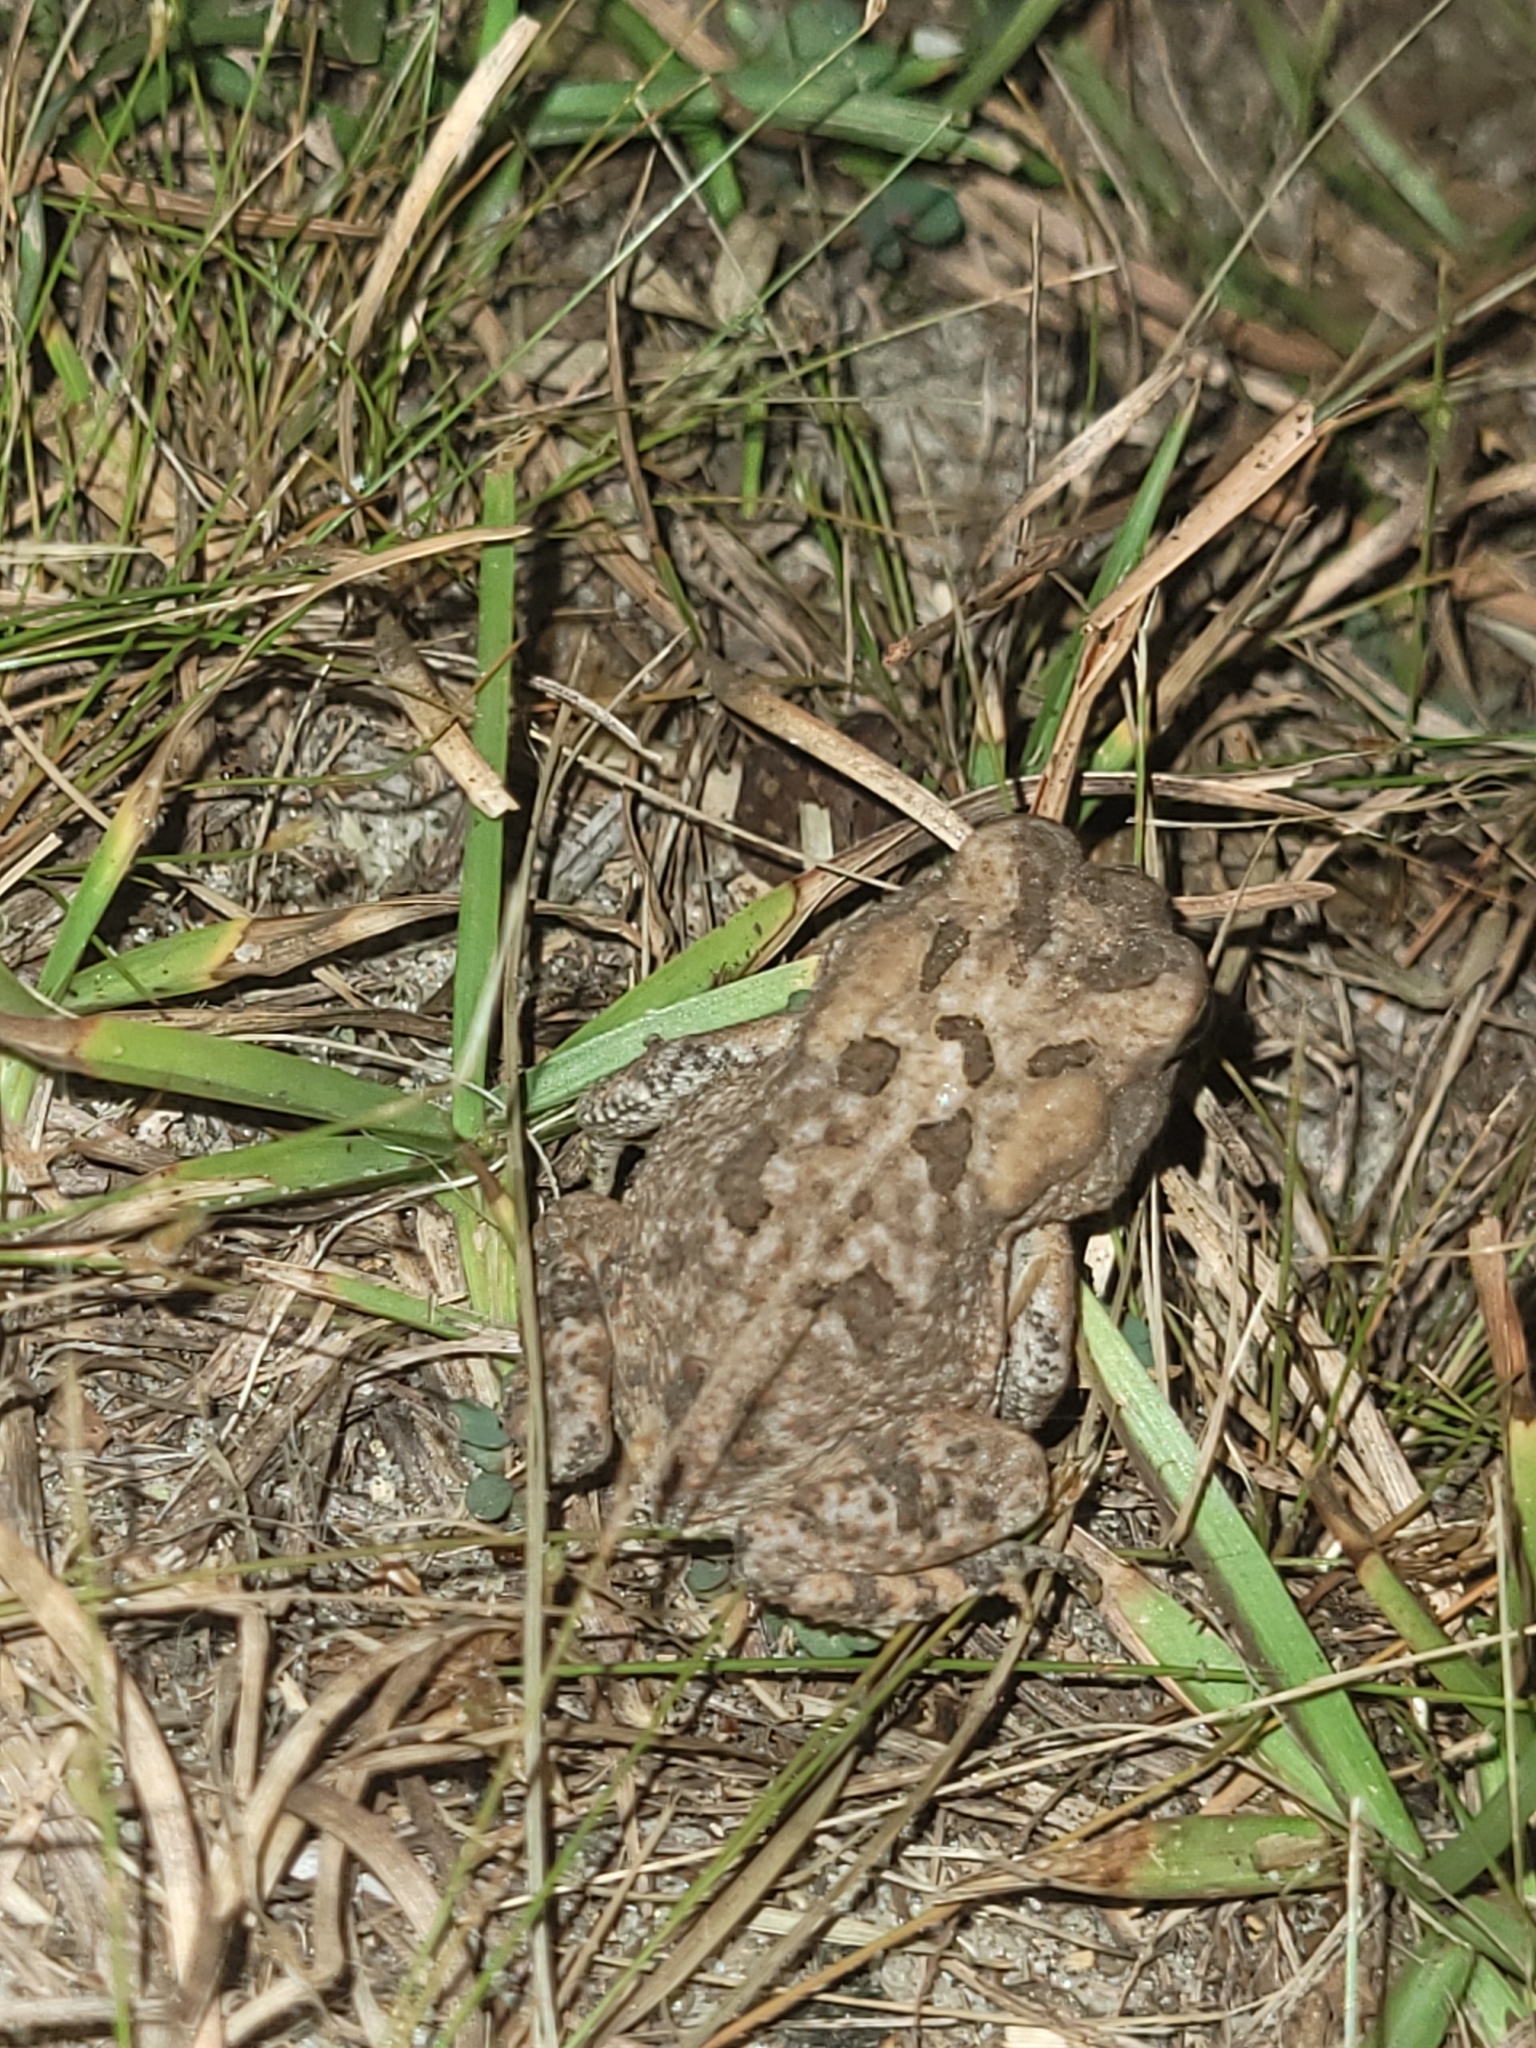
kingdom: Animalia
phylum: Chordata
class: Amphibia
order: Anura
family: Bufonidae
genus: Anaxyrus
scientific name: Anaxyrus terrestris
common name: Southern toad
